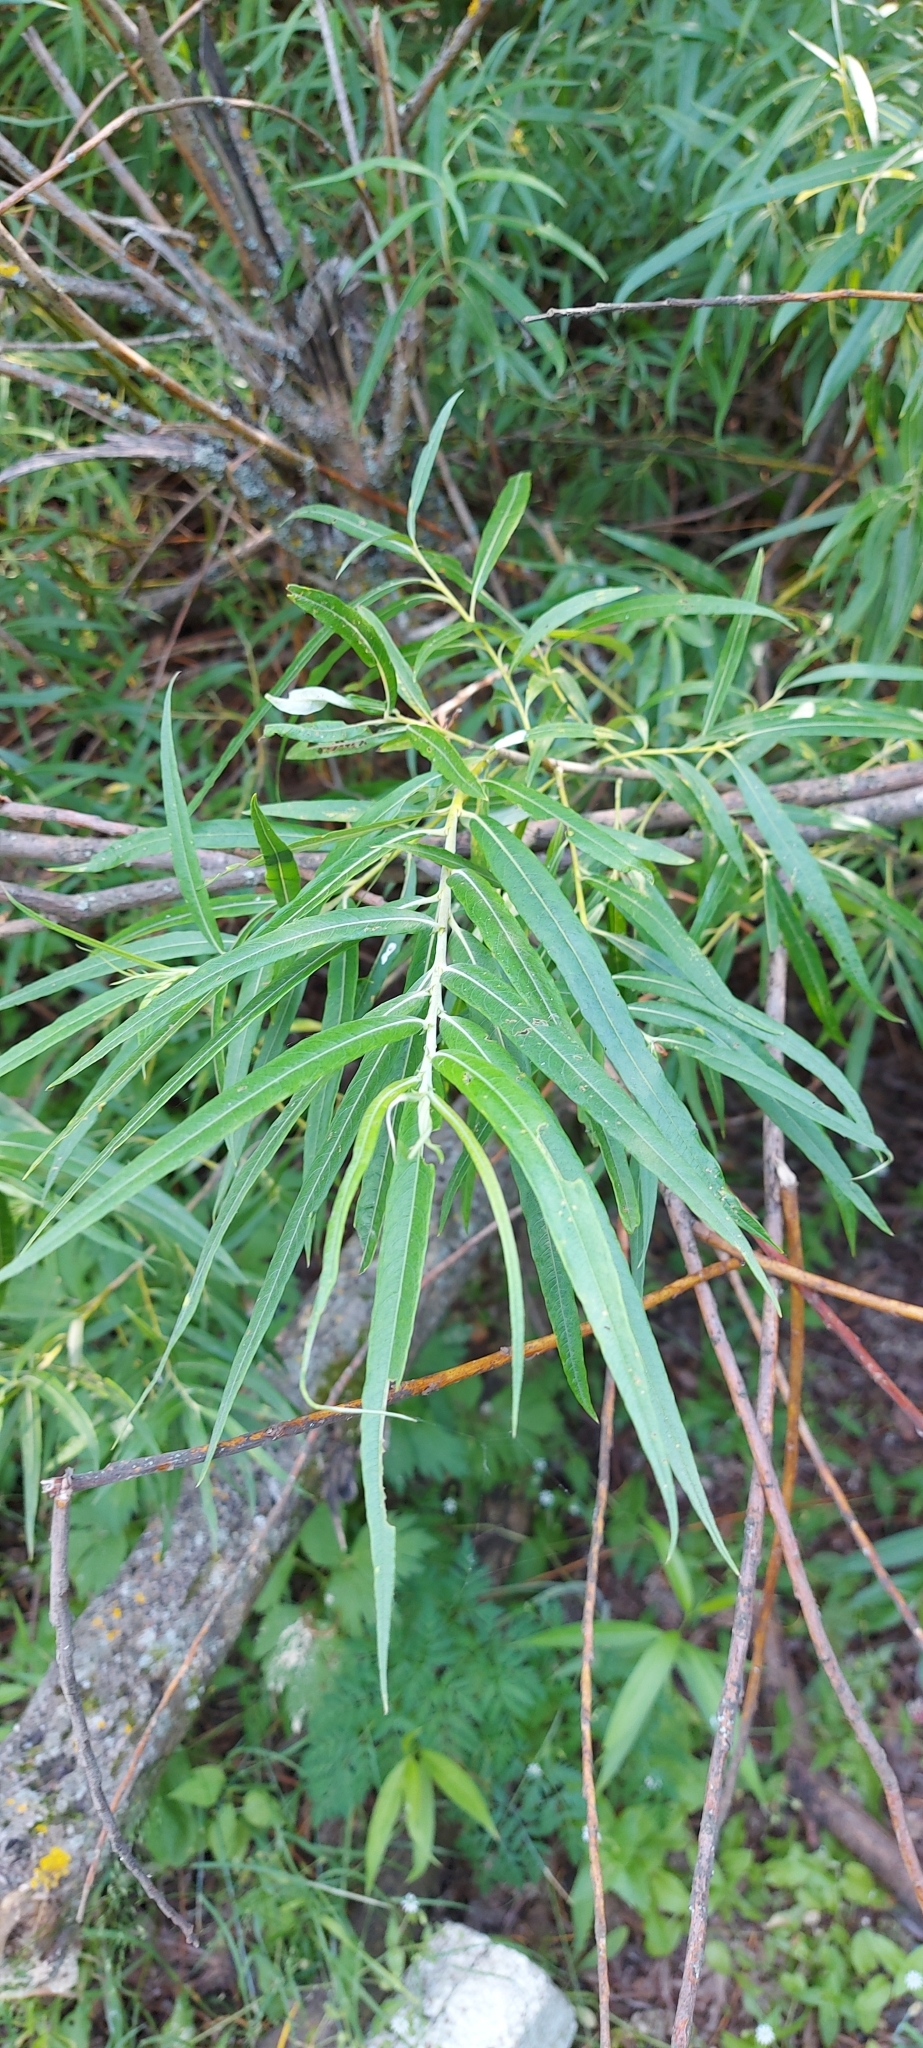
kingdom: Plantae
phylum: Tracheophyta
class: Magnoliopsida
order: Malpighiales
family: Salicaceae
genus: Salix
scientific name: Salix viminalis
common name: Osier
